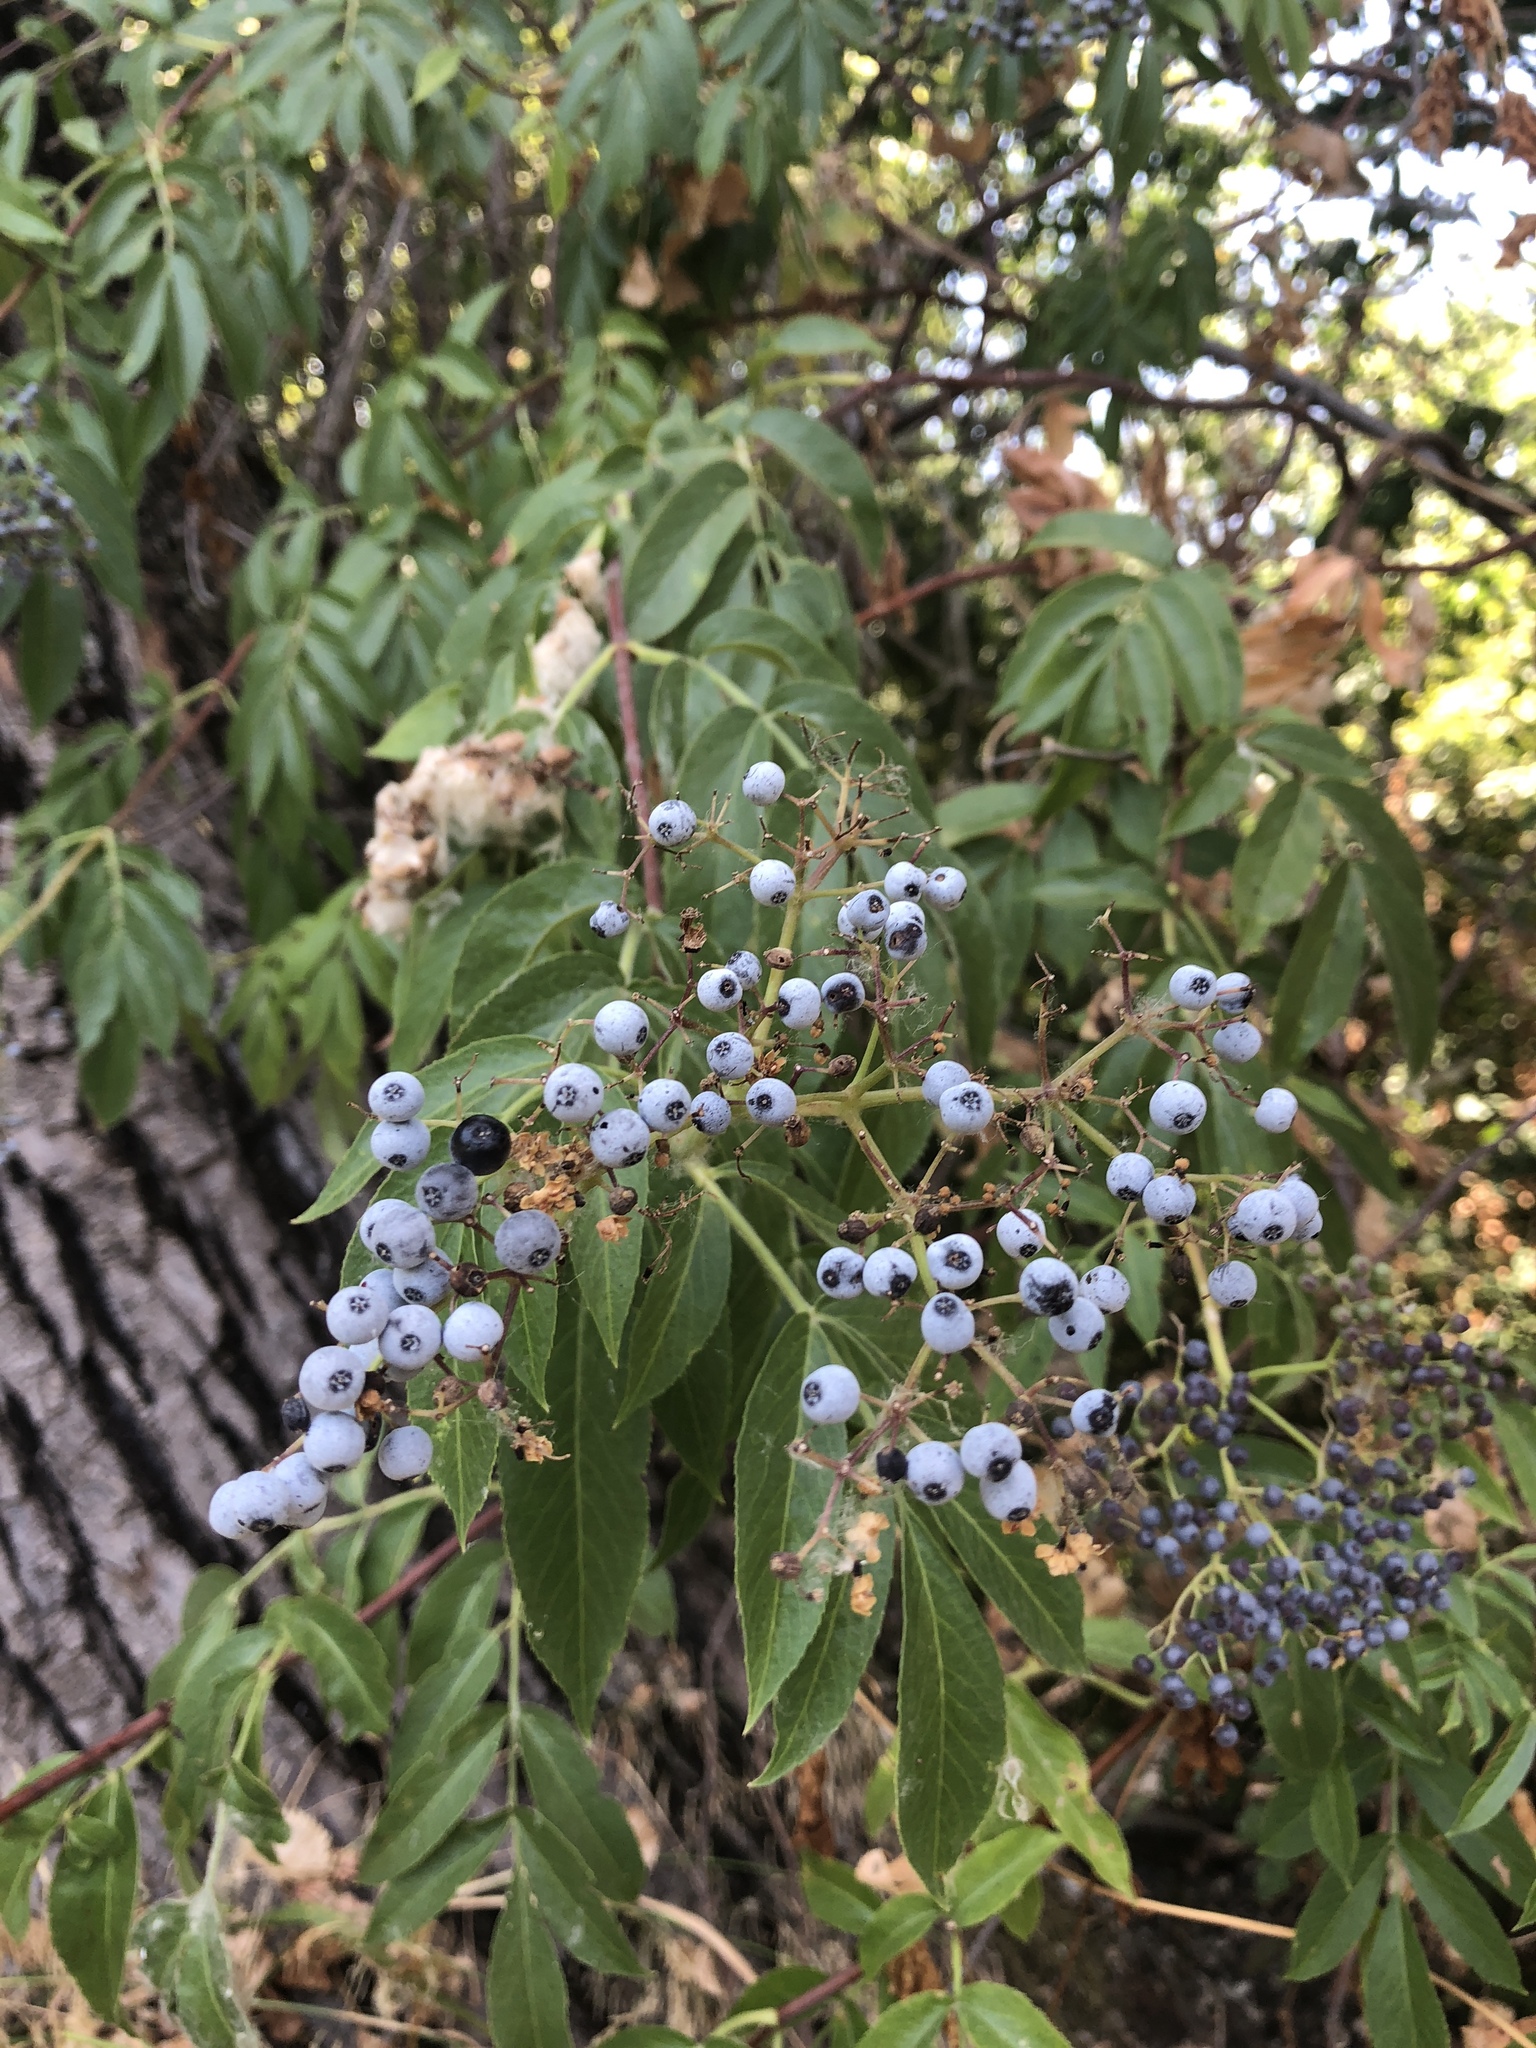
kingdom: Plantae
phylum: Tracheophyta
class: Magnoliopsida
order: Dipsacales
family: Viburnaceae
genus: Sambucus
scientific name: Sambucus cerulea
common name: Blue elder
